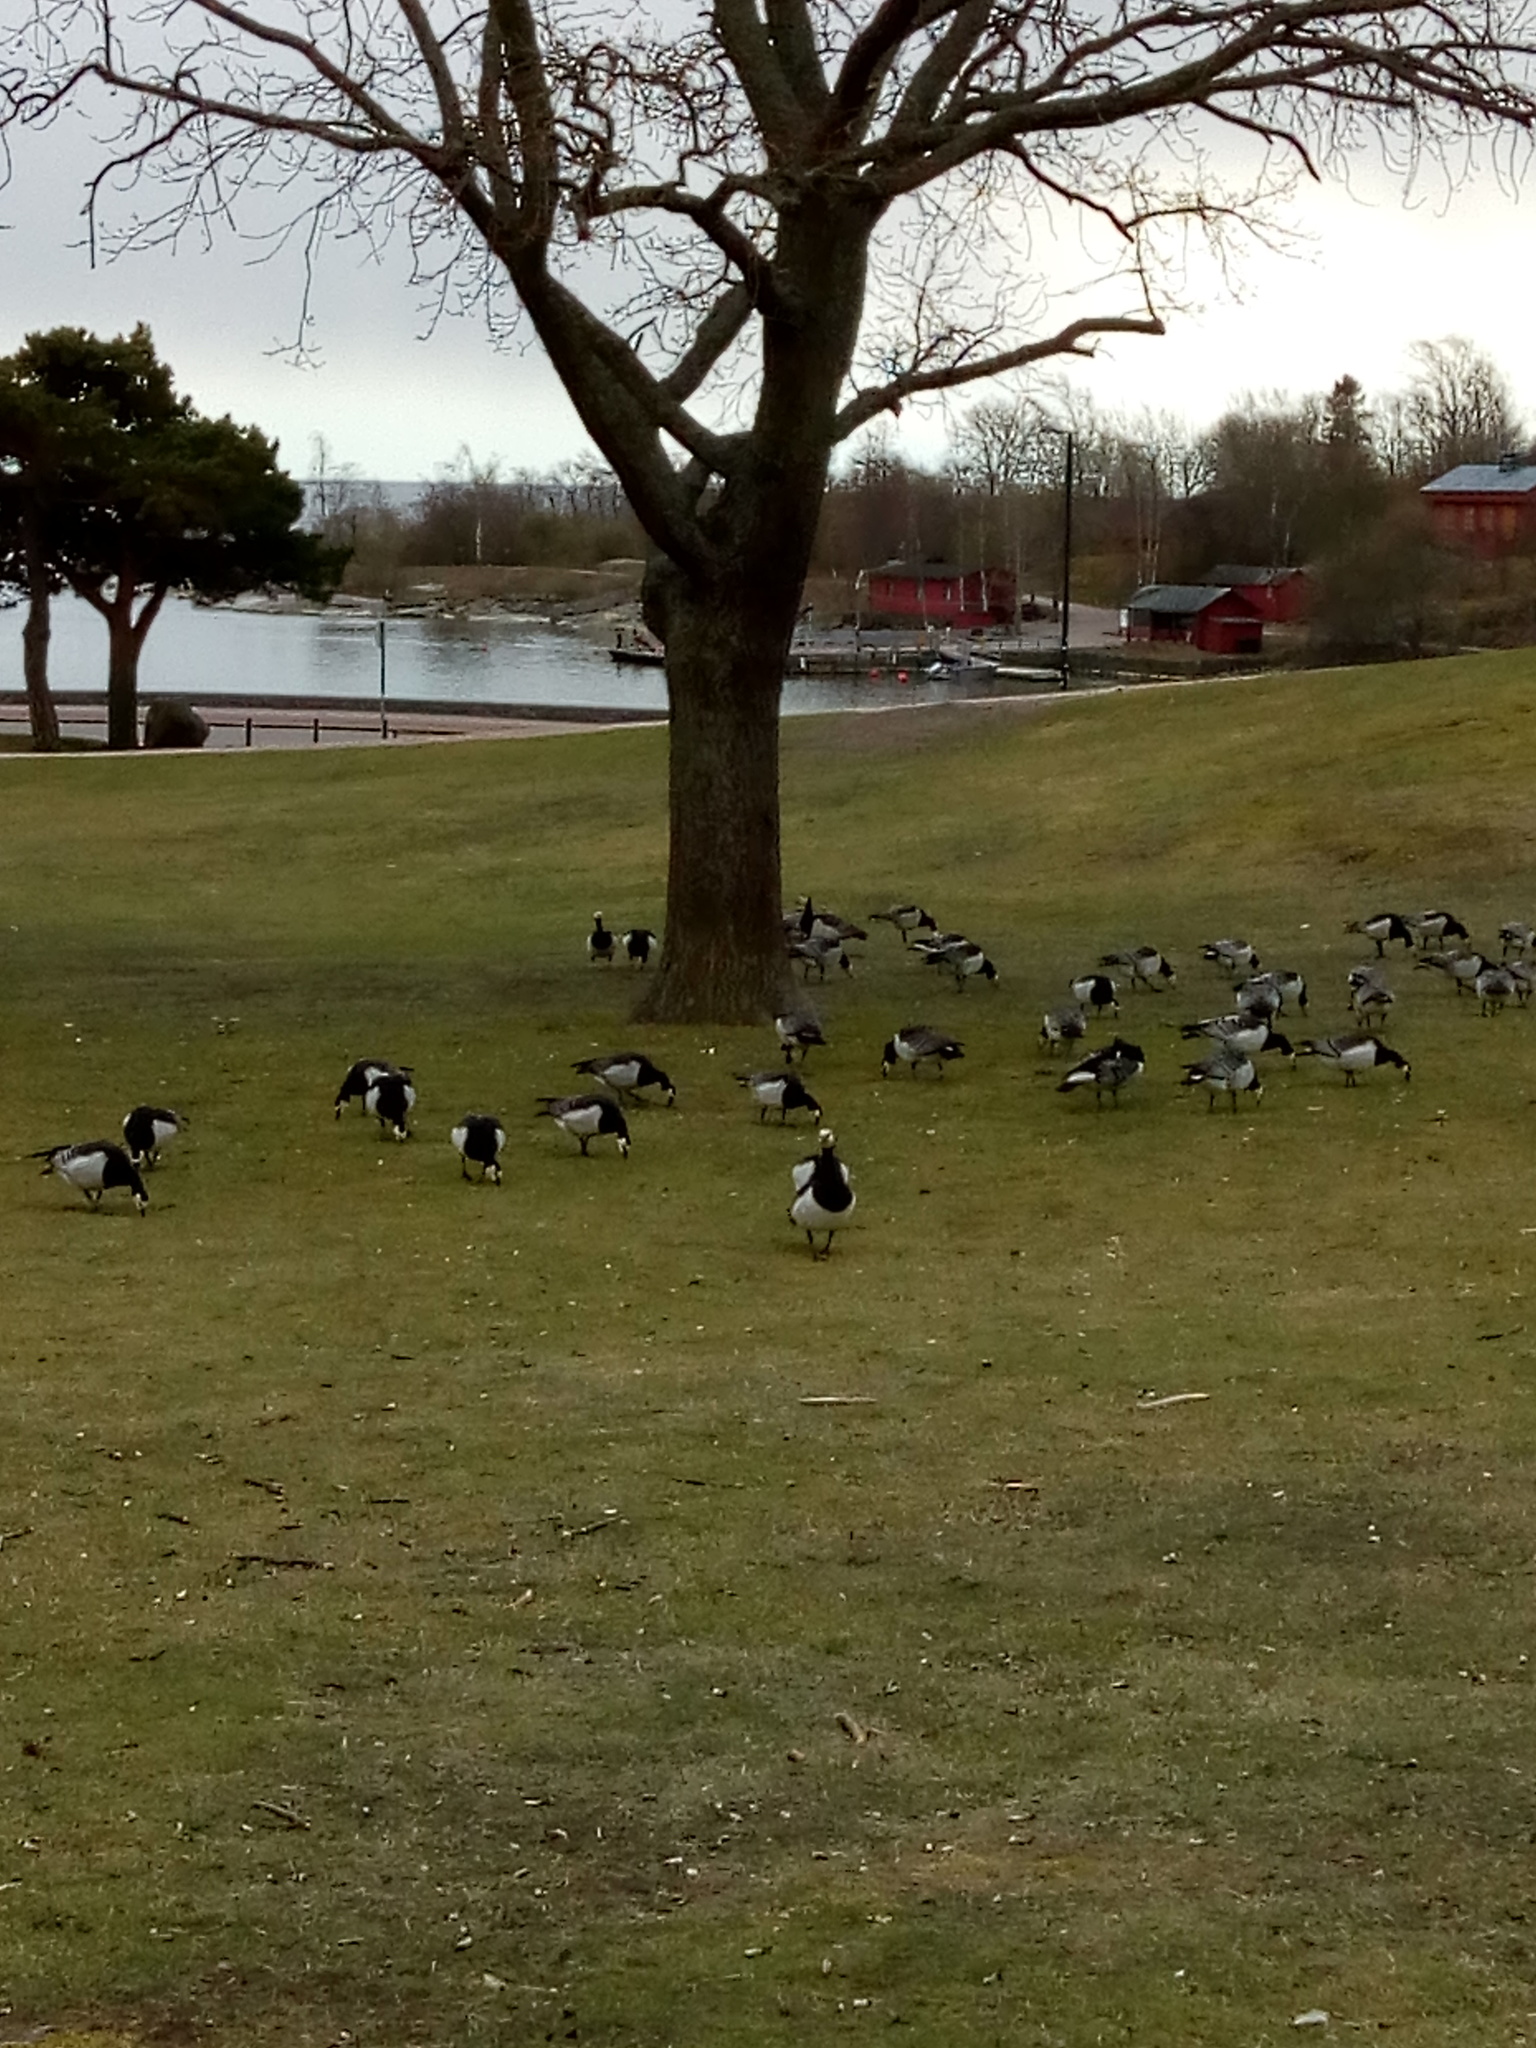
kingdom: Animalia
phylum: Chordata
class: Aves
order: Anseriformes
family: Anatidae
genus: Branta
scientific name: Branta leucopsis
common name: Barnacle goose
